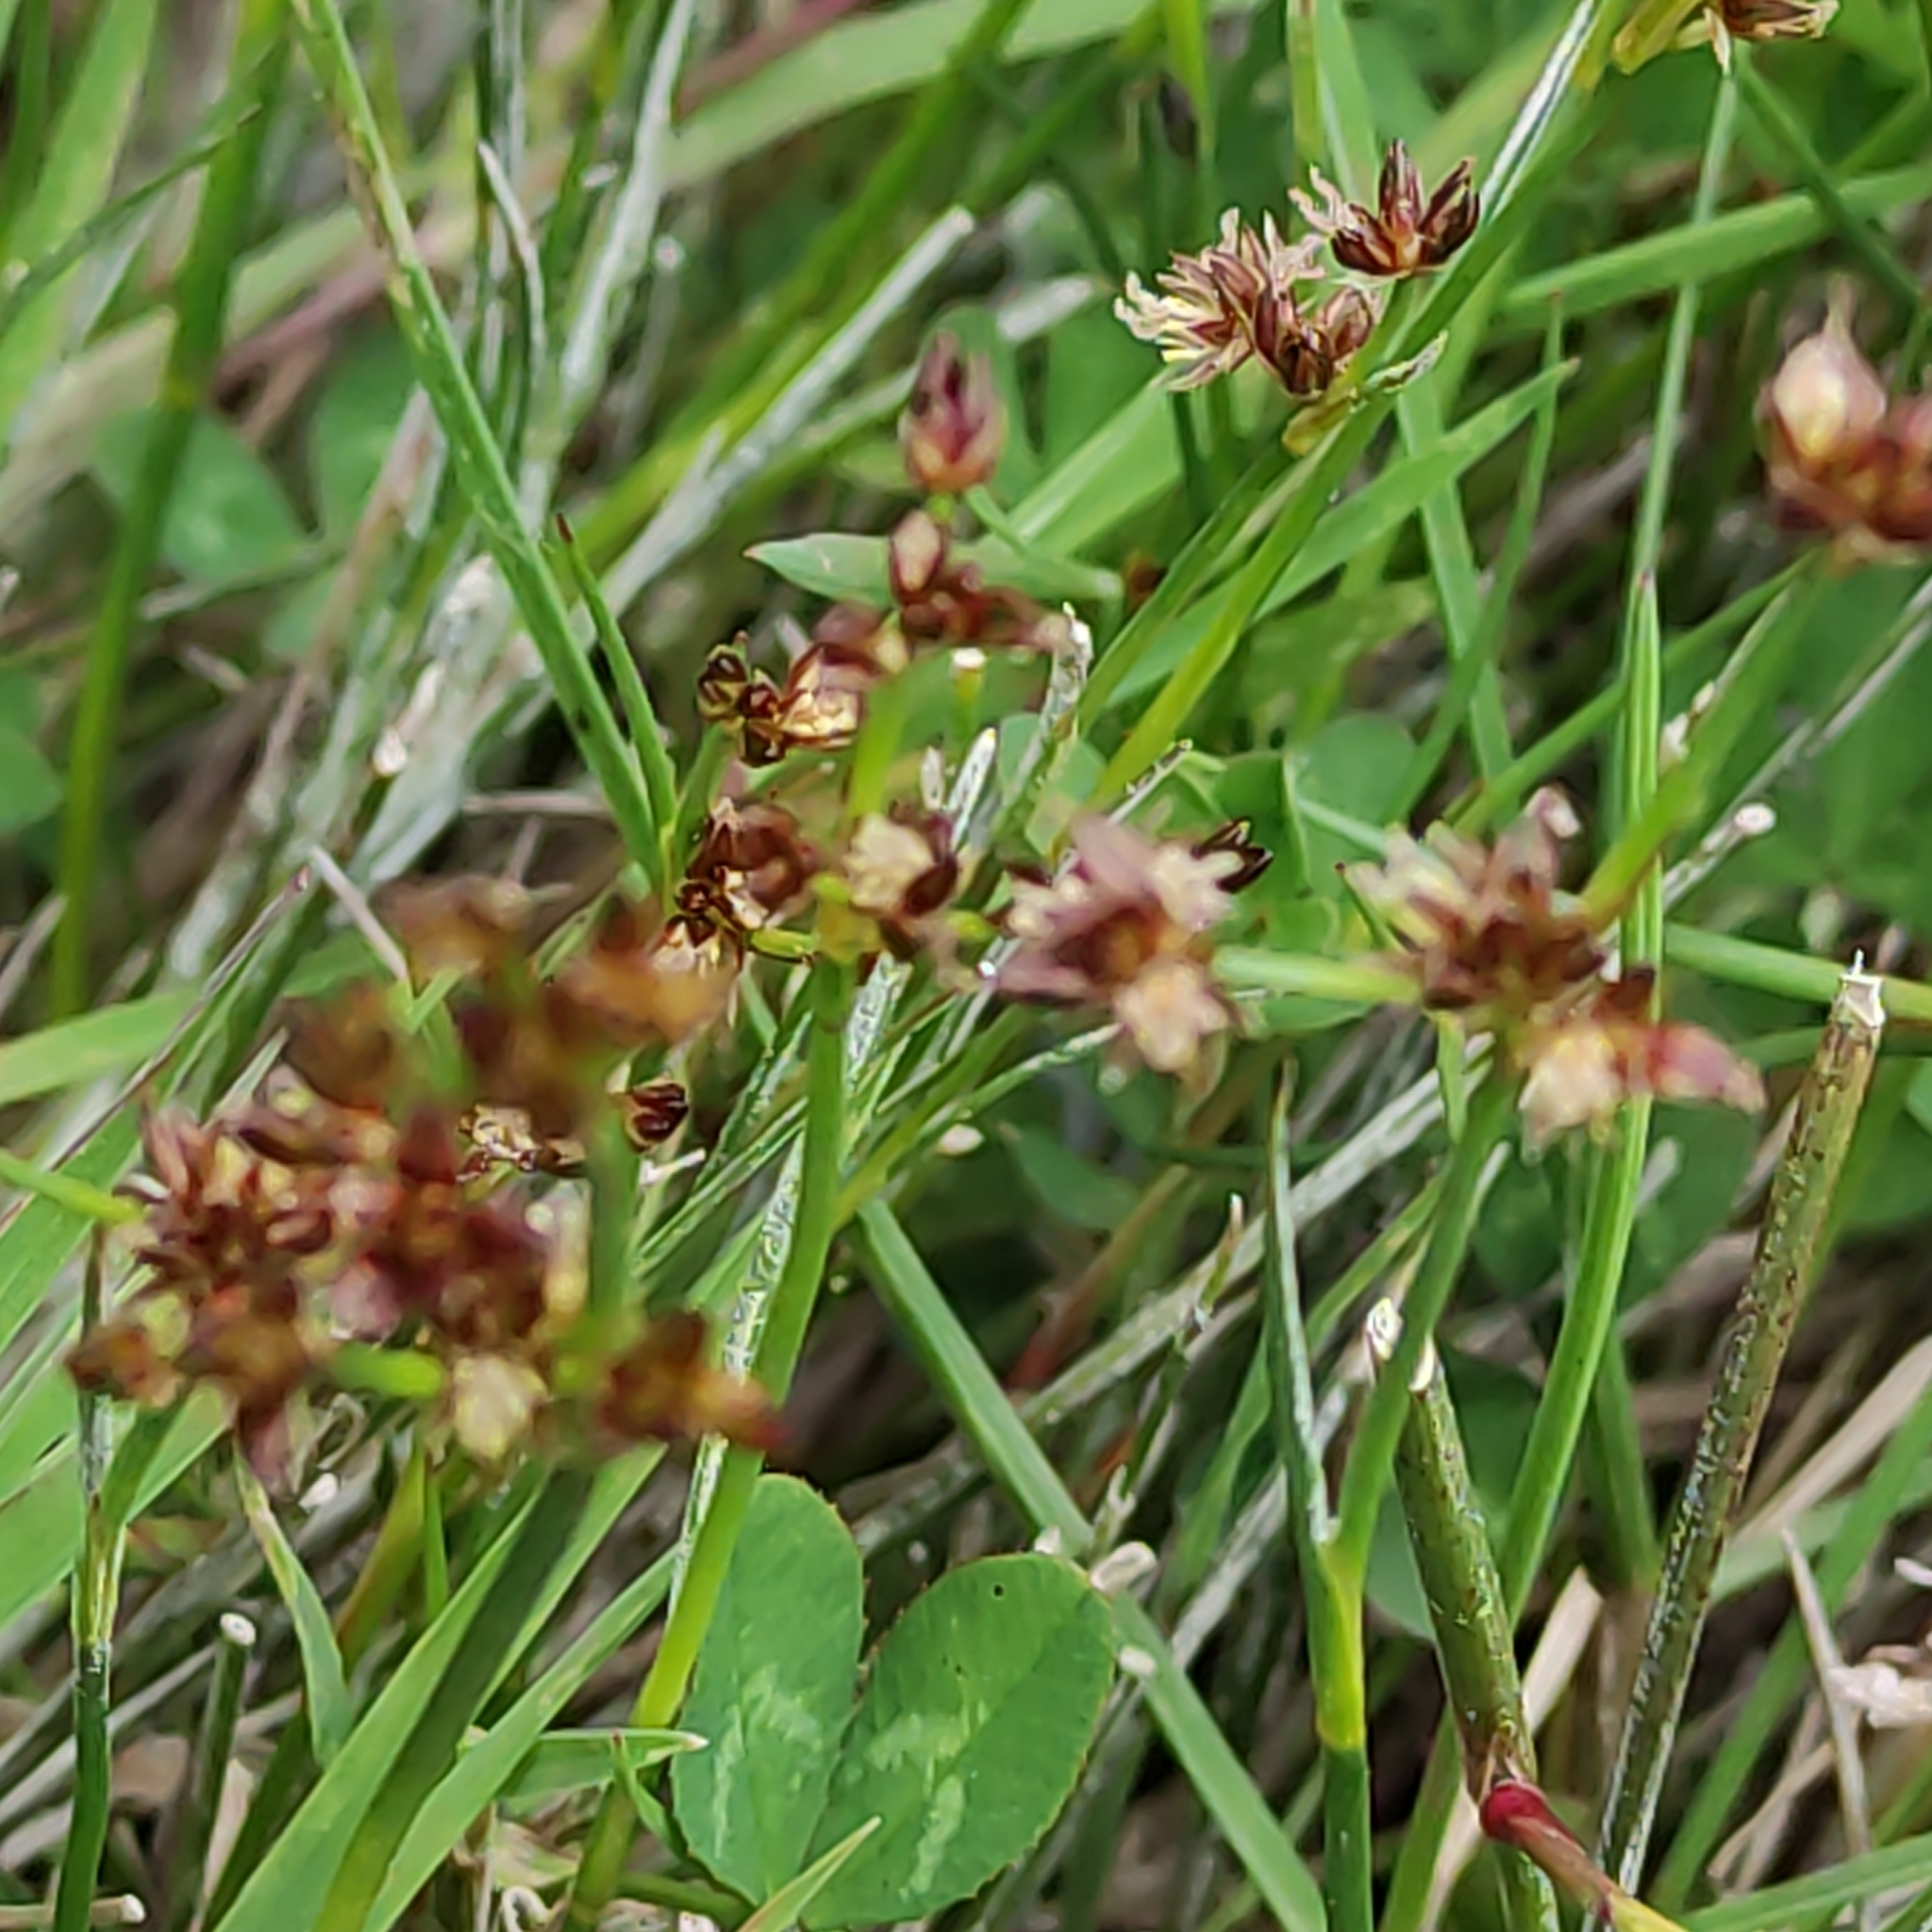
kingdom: Plantae
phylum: Tracheophyta
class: Liliopsida
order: Poales
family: Juncaceae
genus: Juncus
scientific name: Juncus articulatus
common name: Jointed rush
